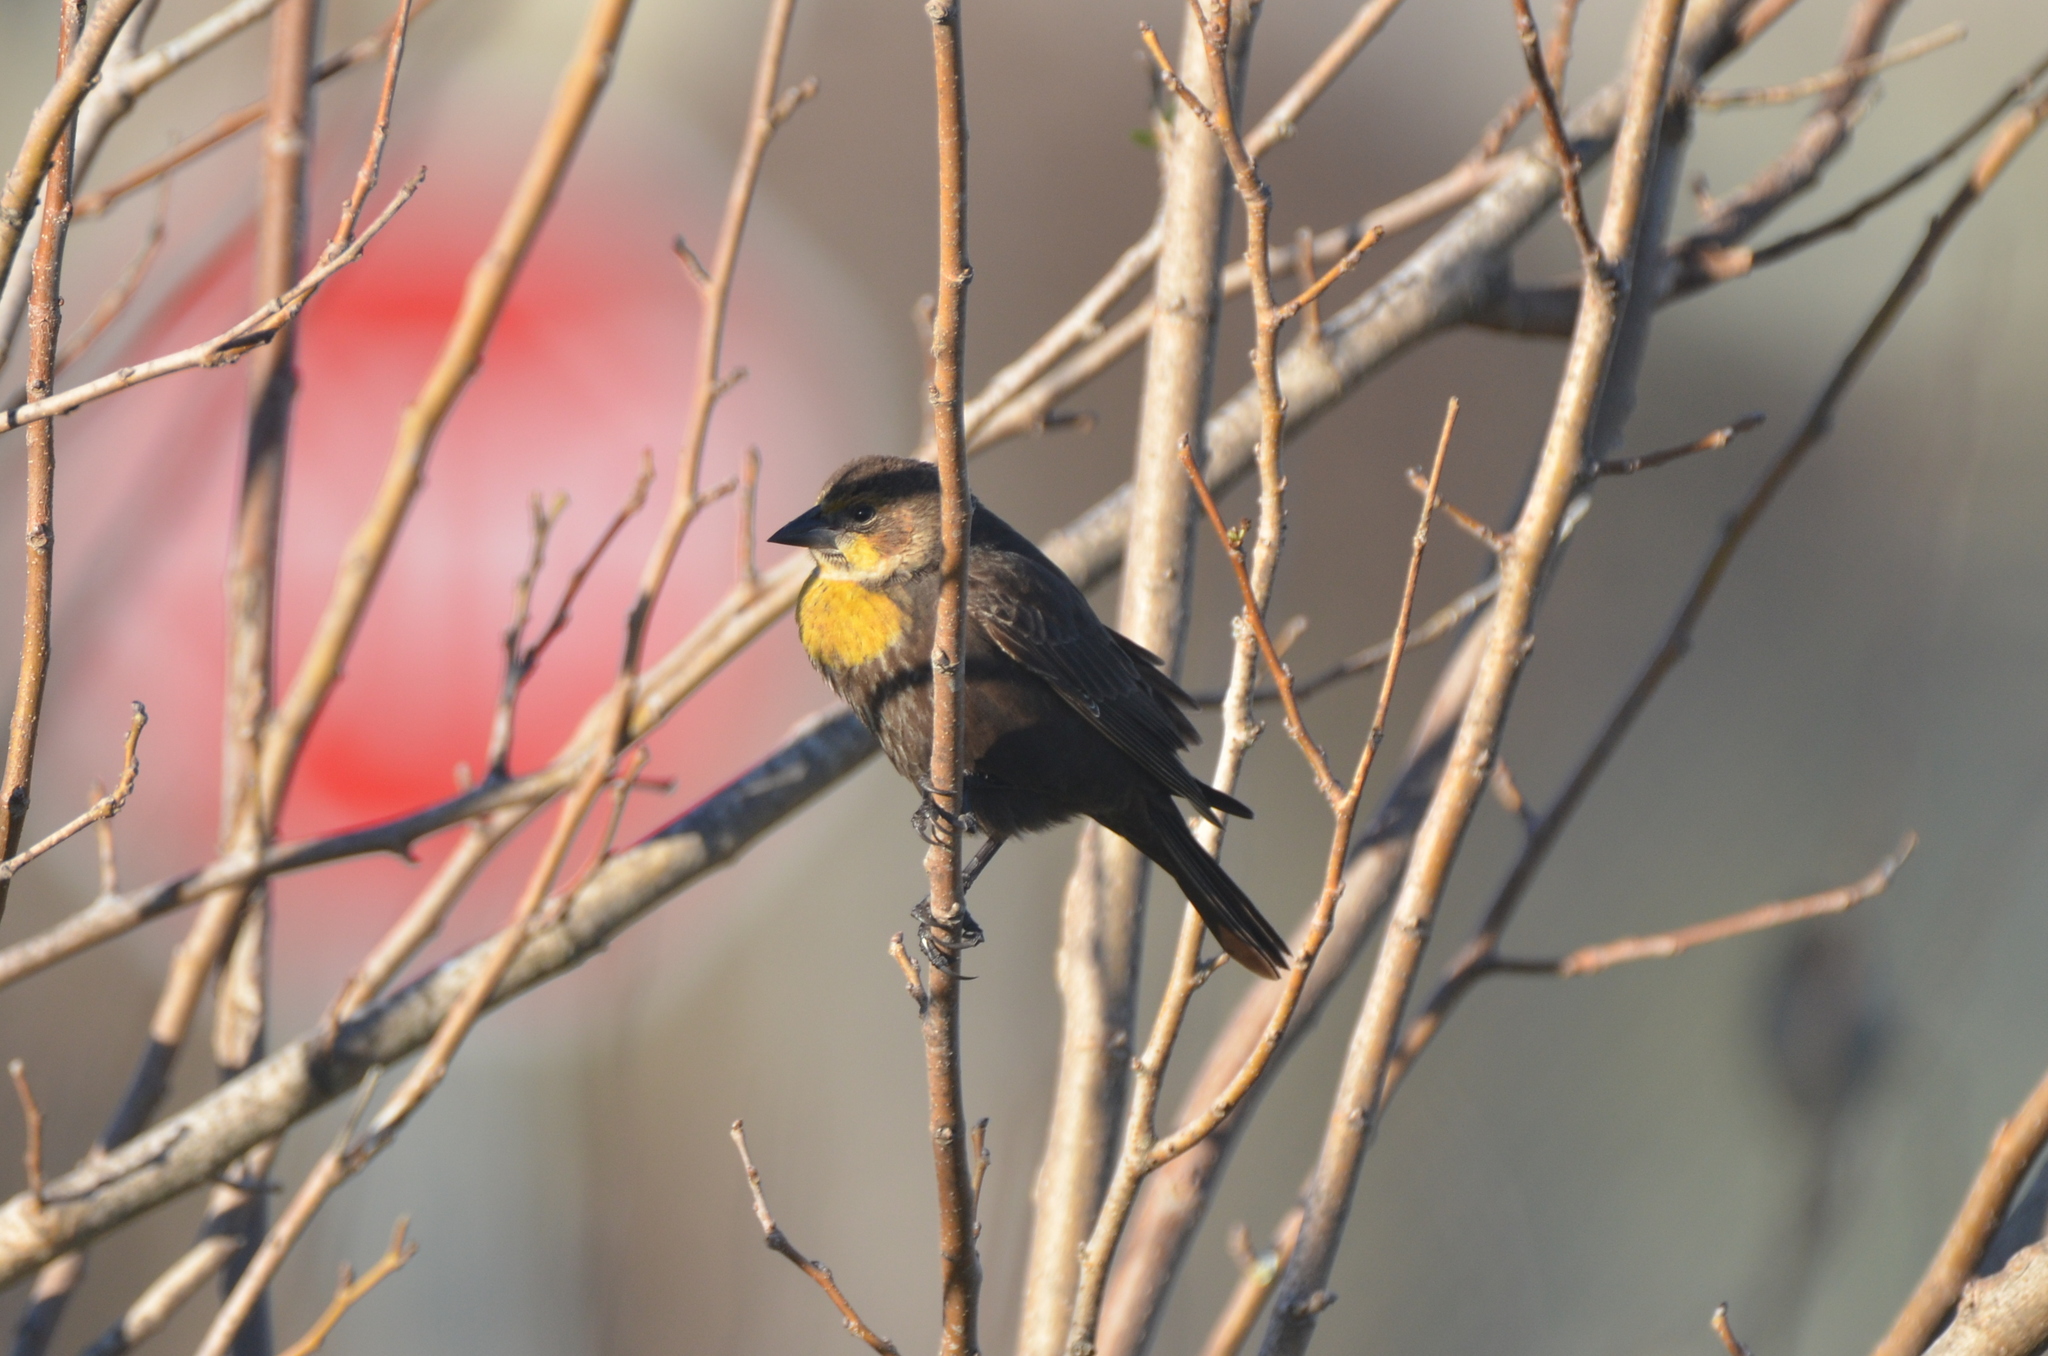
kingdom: Animalia
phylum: Chordata
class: Aves
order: Passeriformes
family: Icteridae
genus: Xanthocephalus
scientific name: Xanthocephalus xanthocephalus
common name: Yellow-headed blackbird
